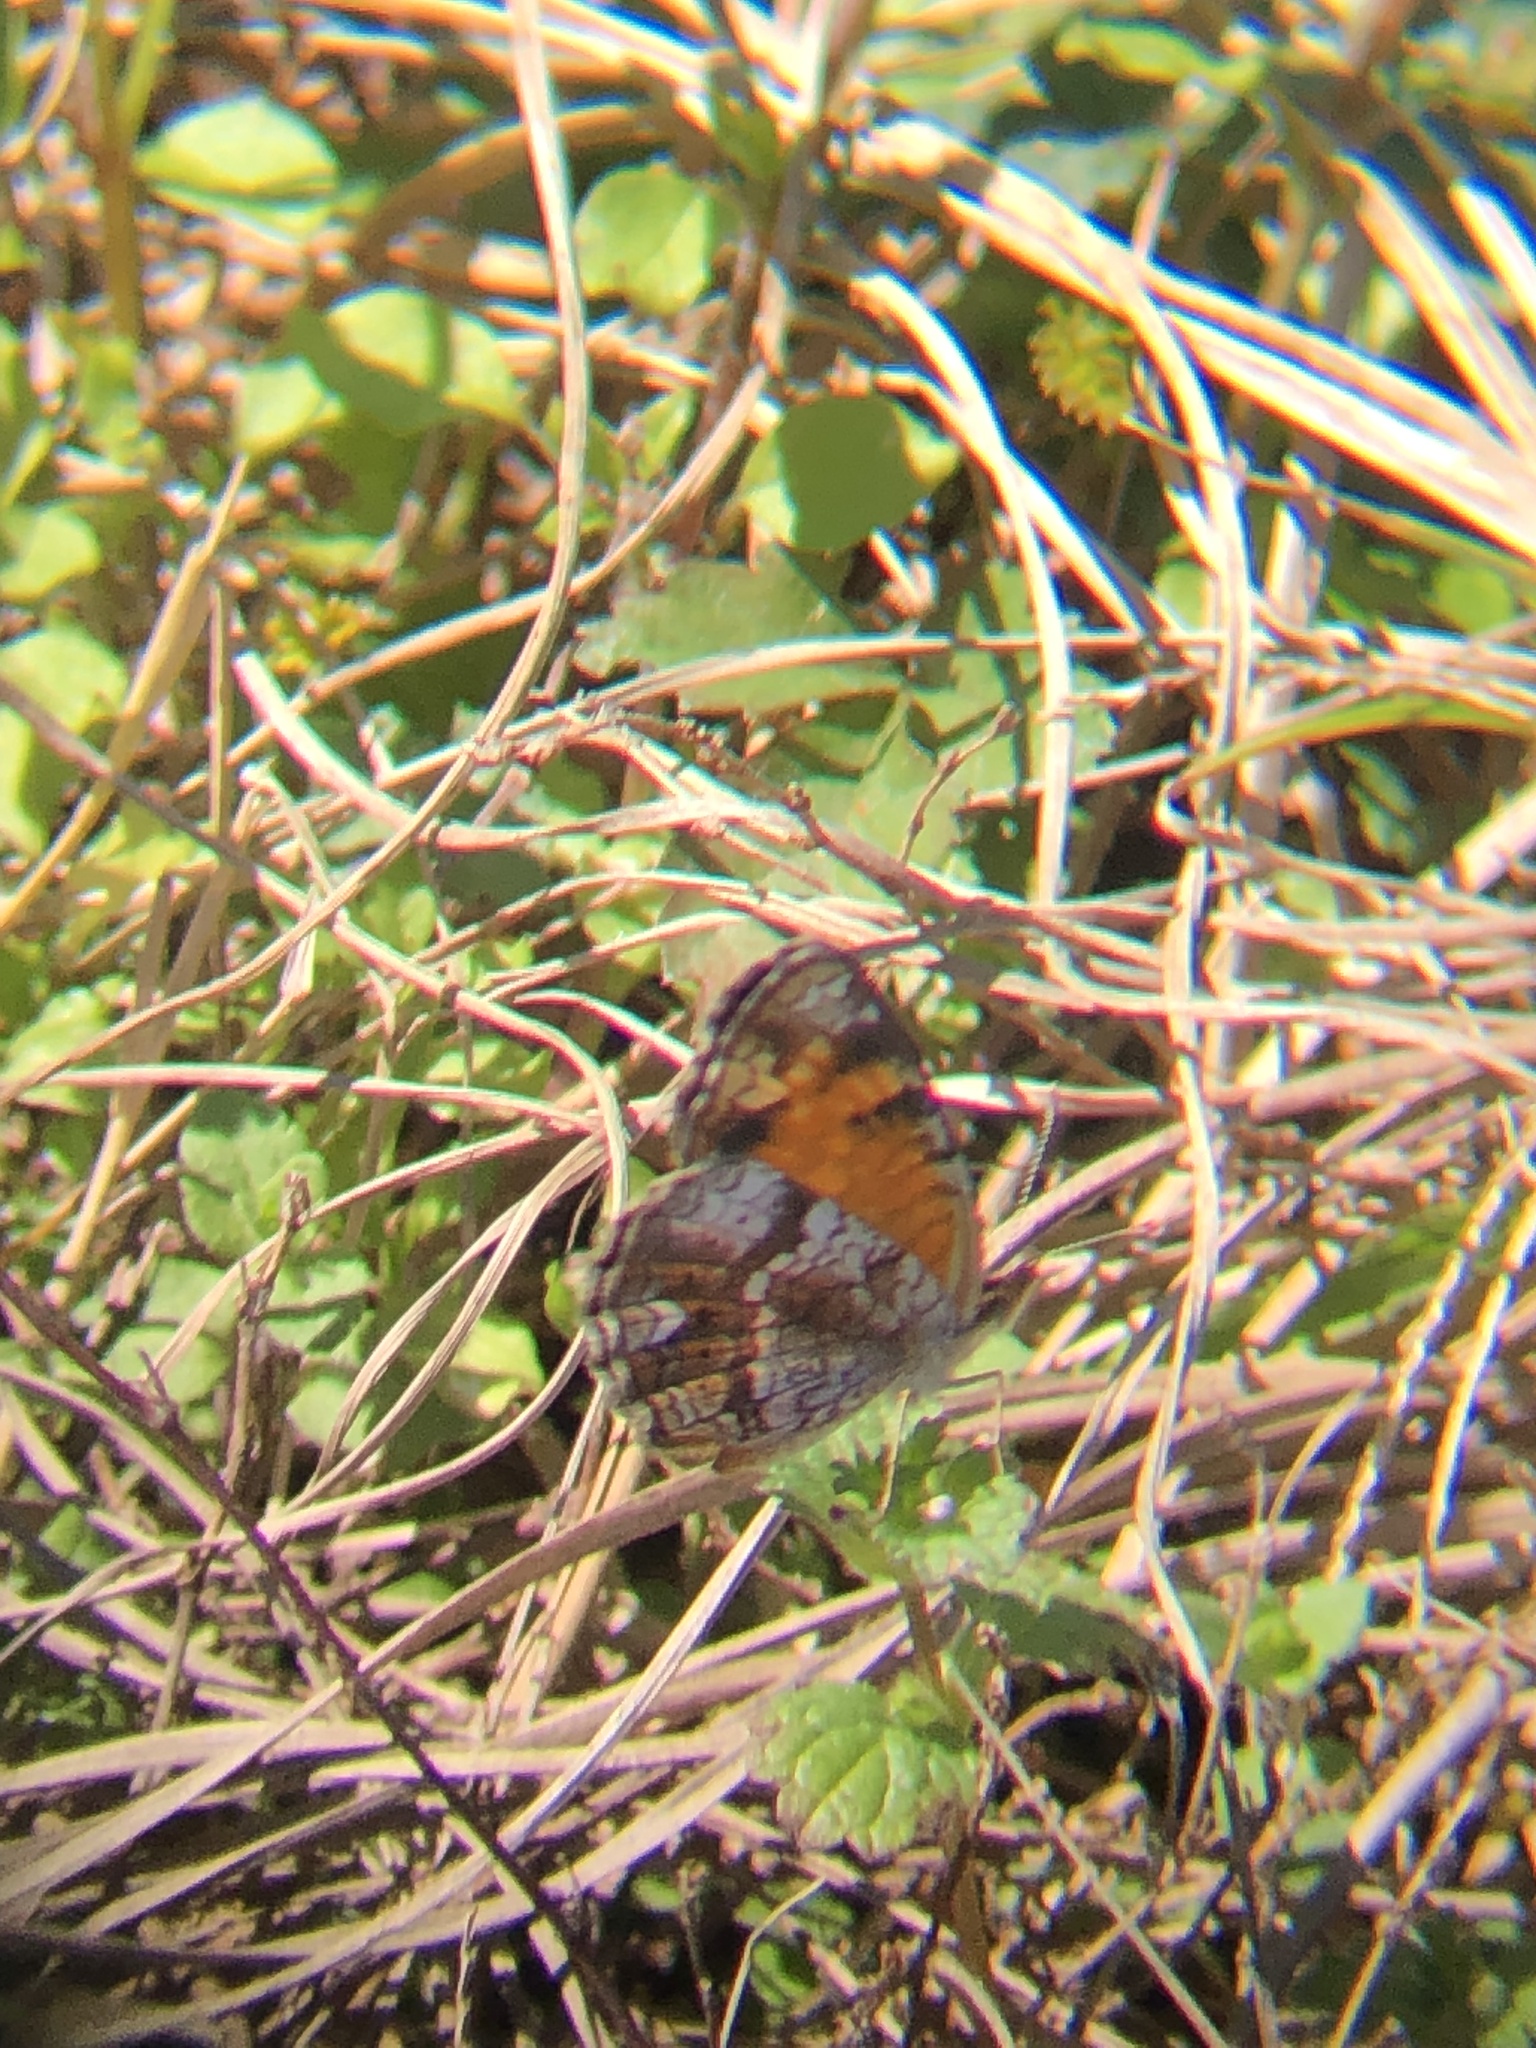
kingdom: Animalia
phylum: Arthropoda
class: Insecta
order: Lepidoptera
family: Nymphalidae
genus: Phyciodes
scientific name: Phyciodes tharos
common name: Pearl crescent
